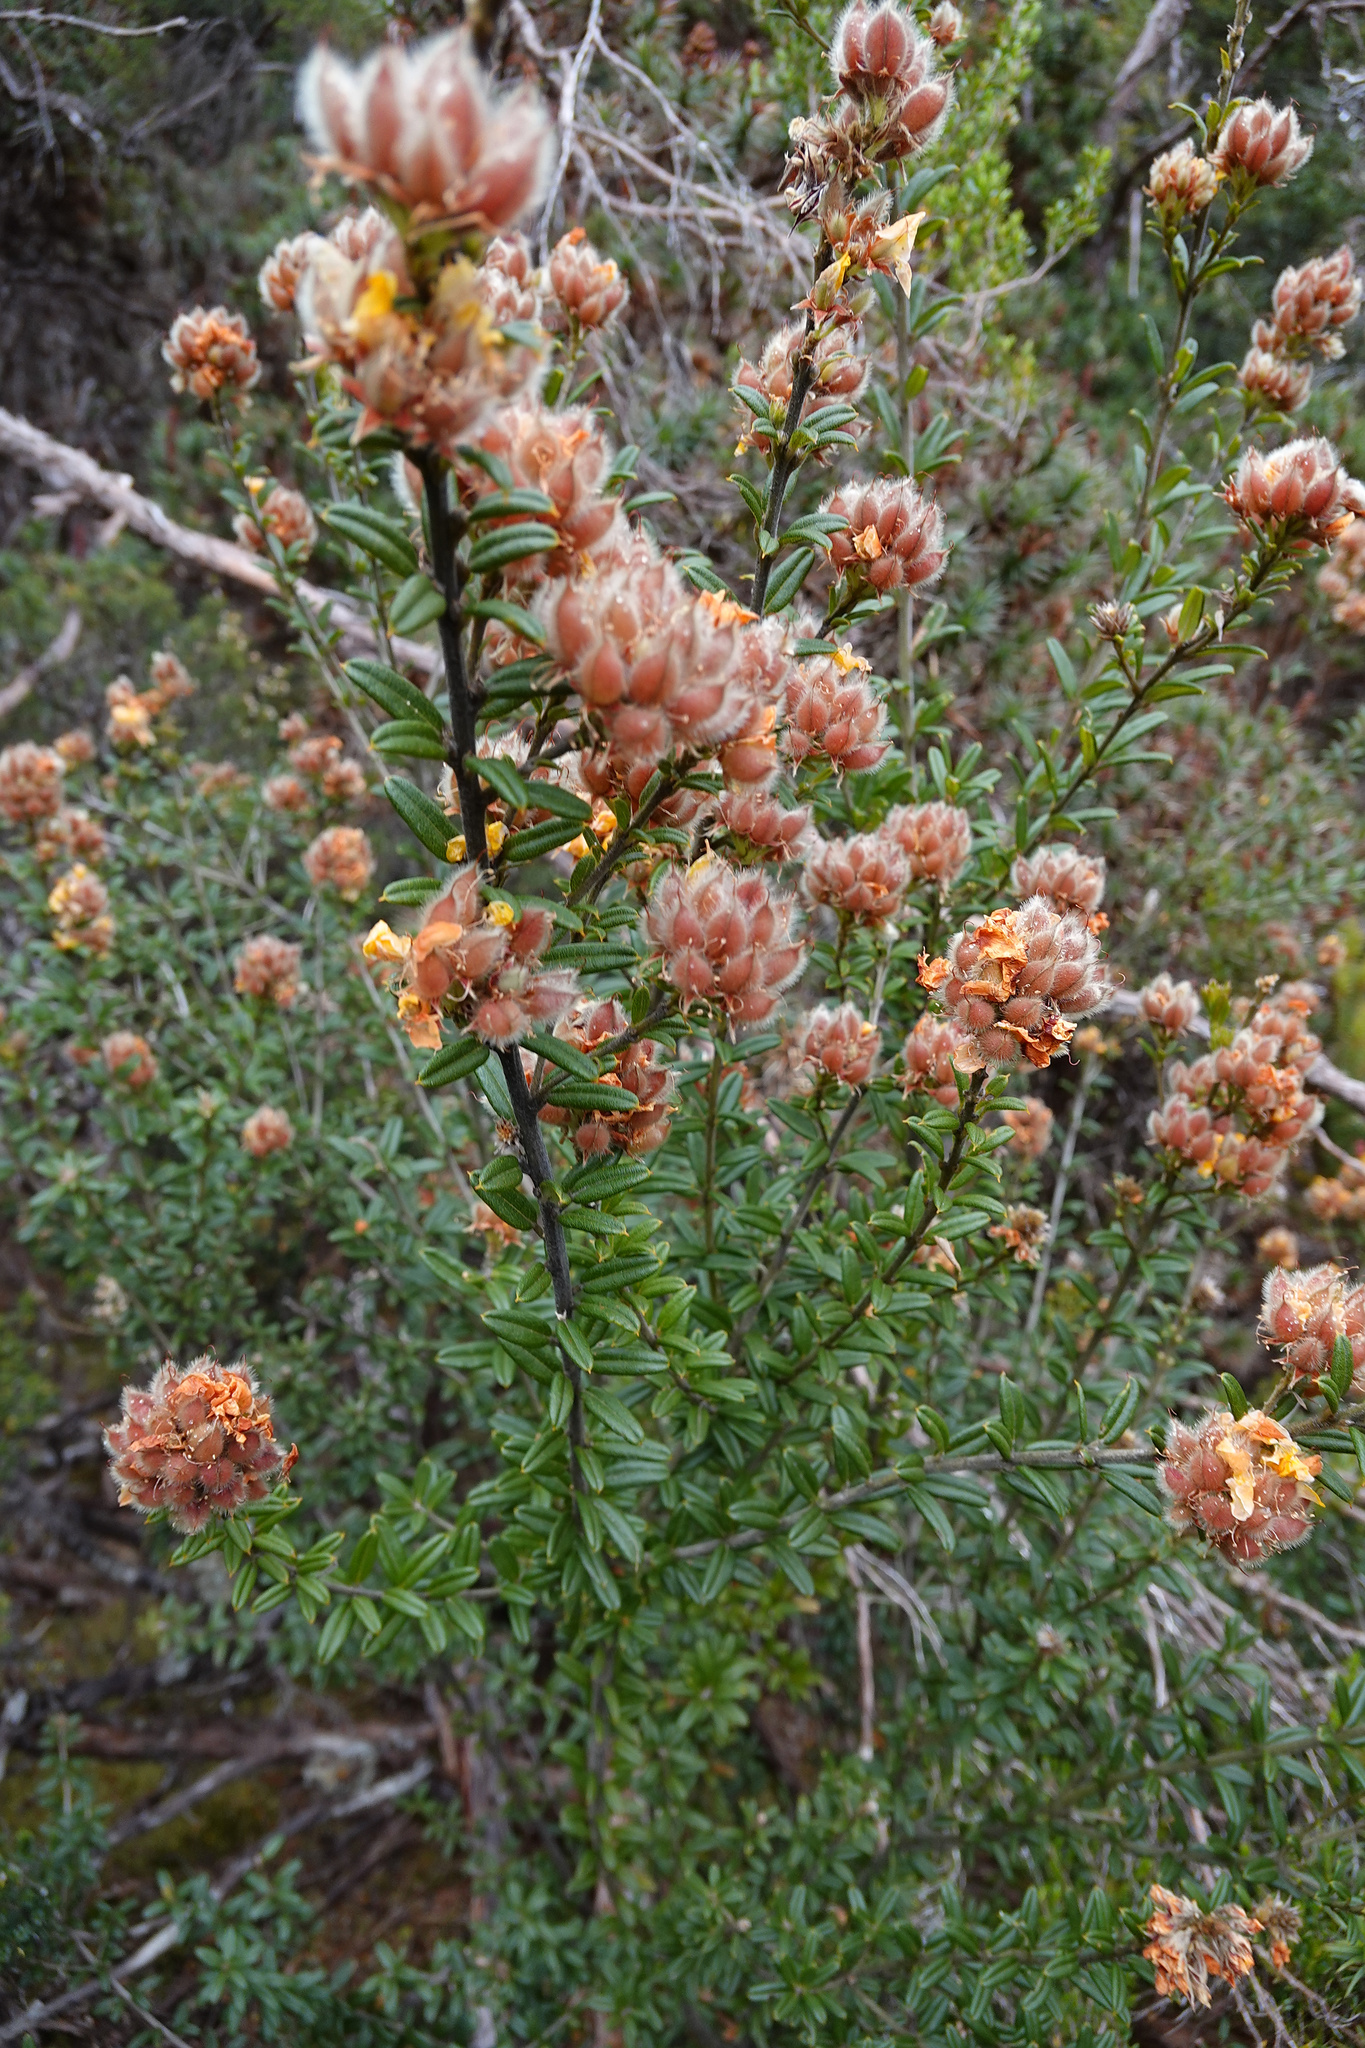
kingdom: Plantae
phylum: Tracheophyta
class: Magnoliopsida
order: Fabales
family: Fabaceae
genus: Oxylobium
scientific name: Oxylobium ellipticum
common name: Golden shaggy-pea
